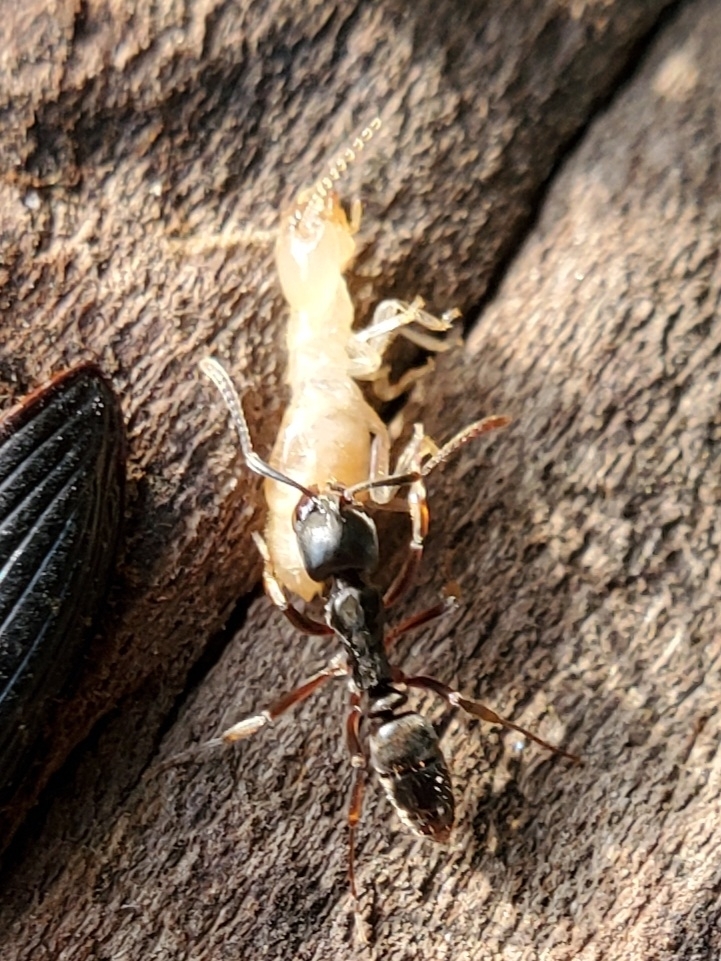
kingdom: Animalia
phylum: Arthropoda
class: Insecta
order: Hymenoptera
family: Formicidae
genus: Pachycondyla
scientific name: Pachycondyla chinensis
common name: Asian needle ant
